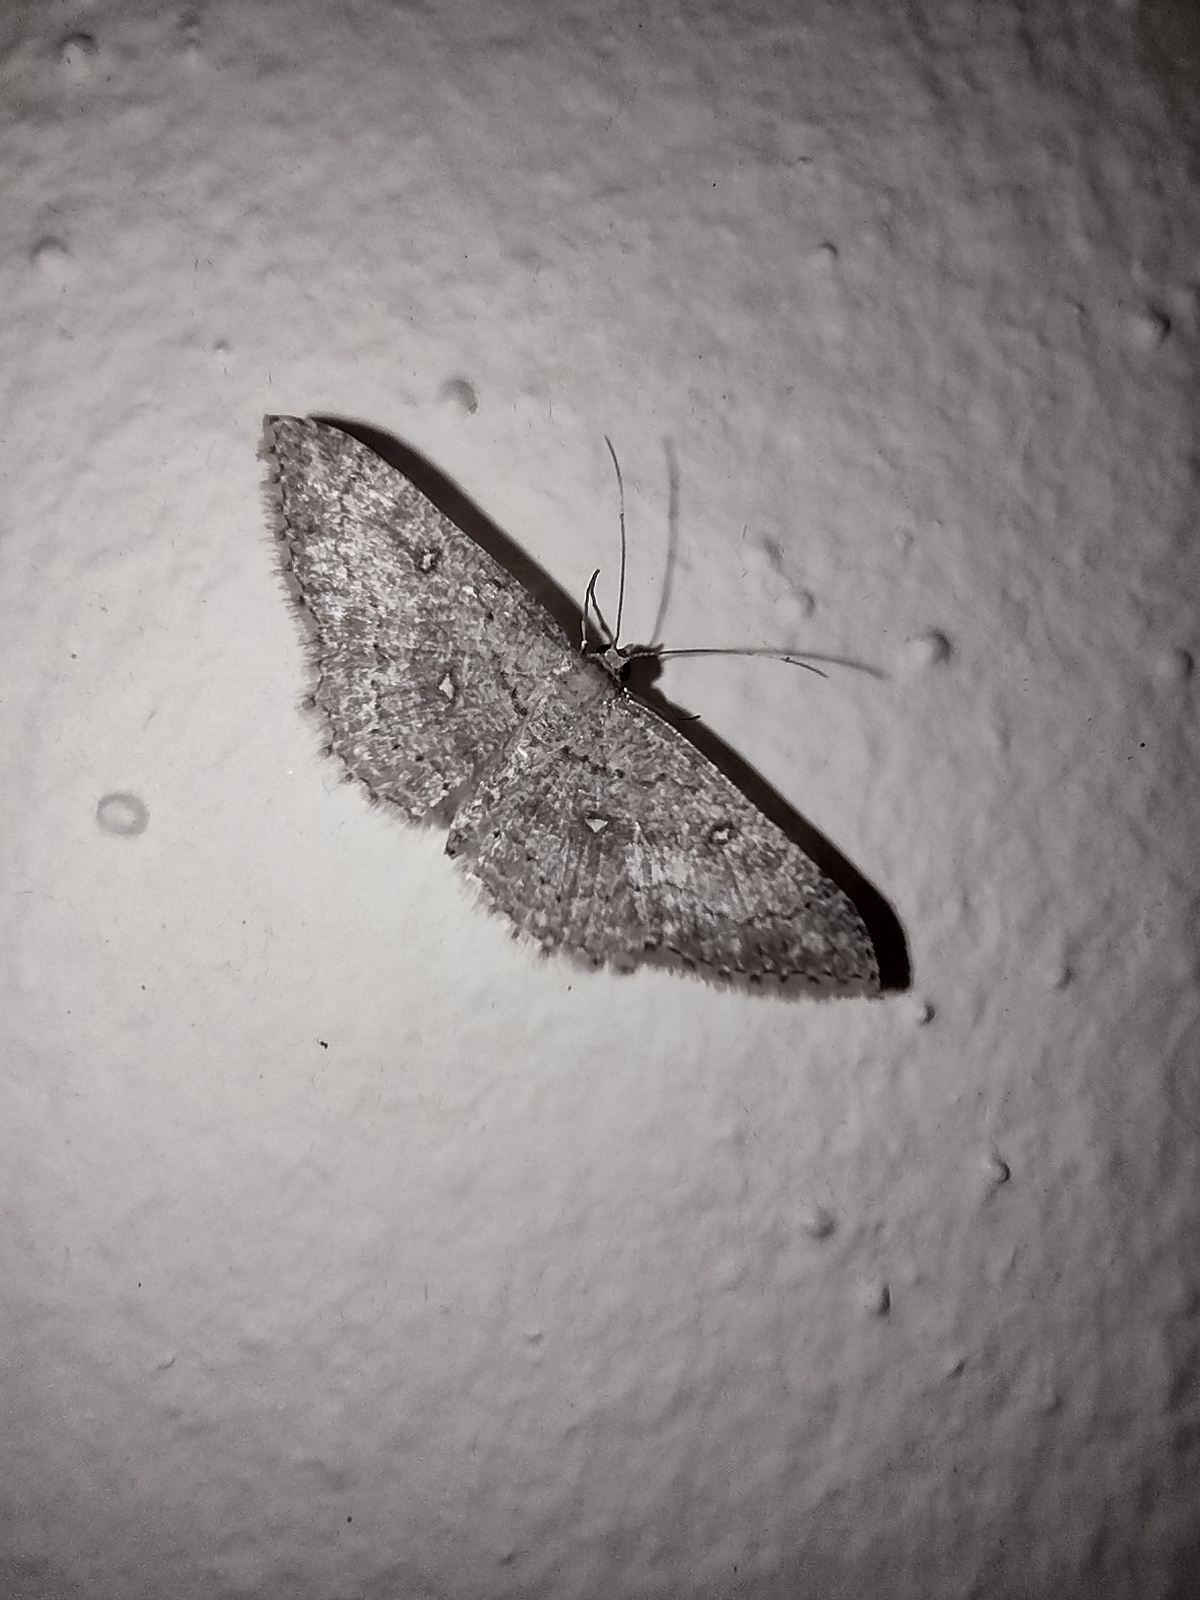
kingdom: Animalia
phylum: Arthropoda
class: Insecta
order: Lepidoptera
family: Geometridae
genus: Cyclophora
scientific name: Cyclophora nanaria
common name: Cankerworm
